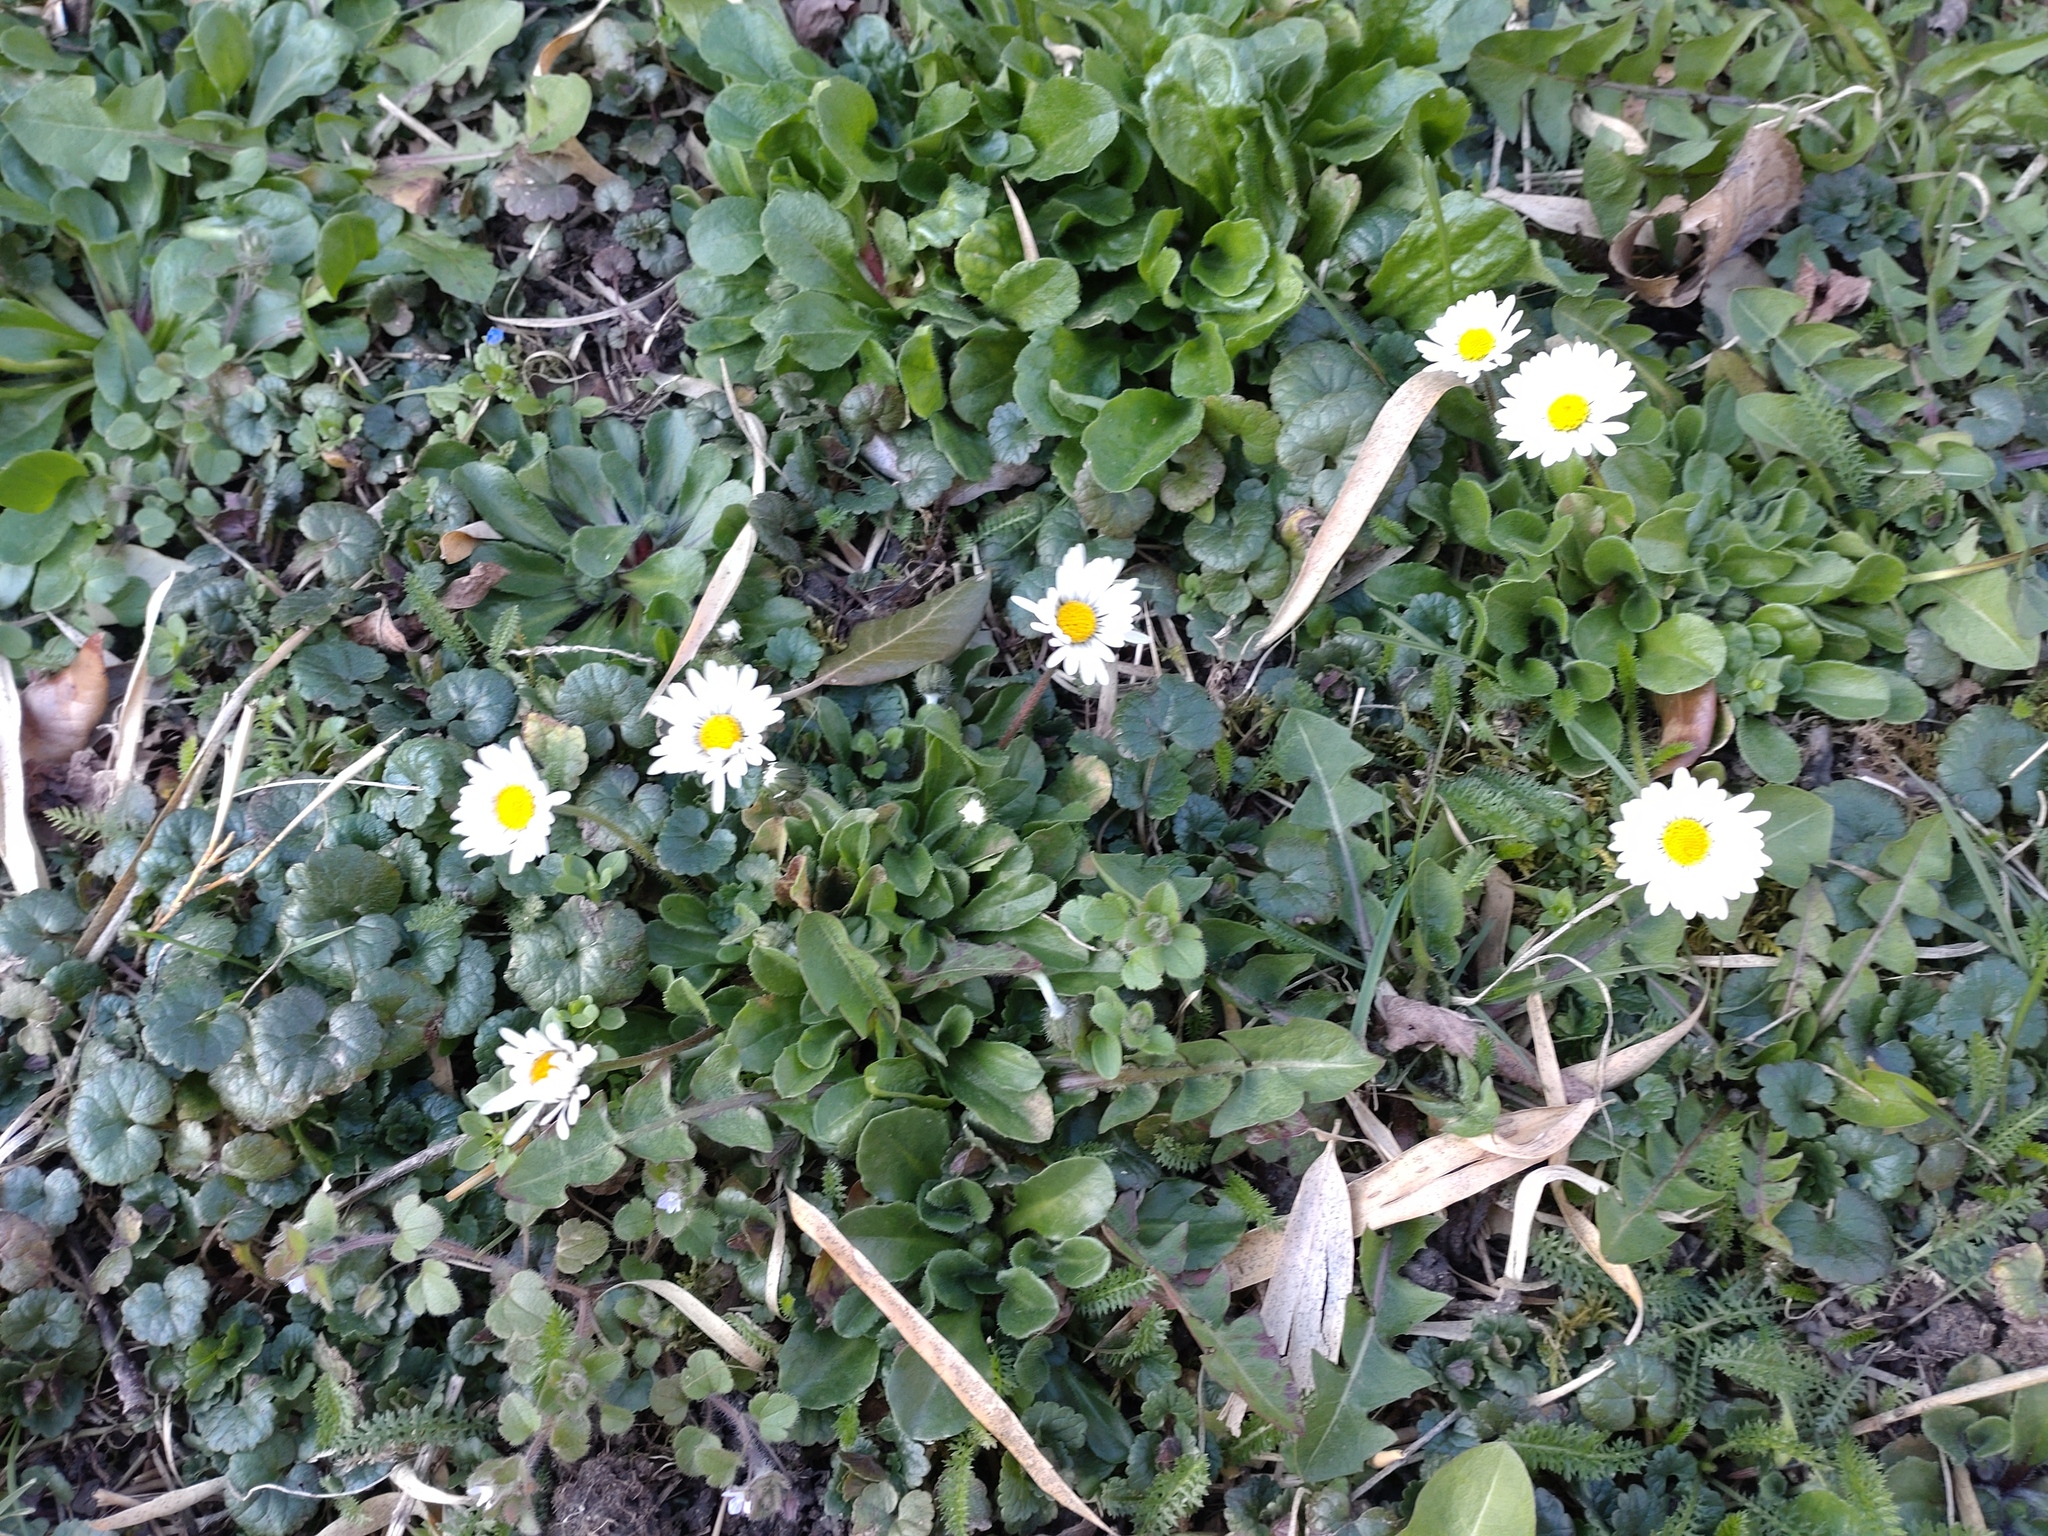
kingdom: Plantae
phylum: Tracheophyta
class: Magnoliopsida
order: Asterales
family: Asteraceae
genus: Bellis
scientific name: Bellis perennis
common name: Lawndaisy
